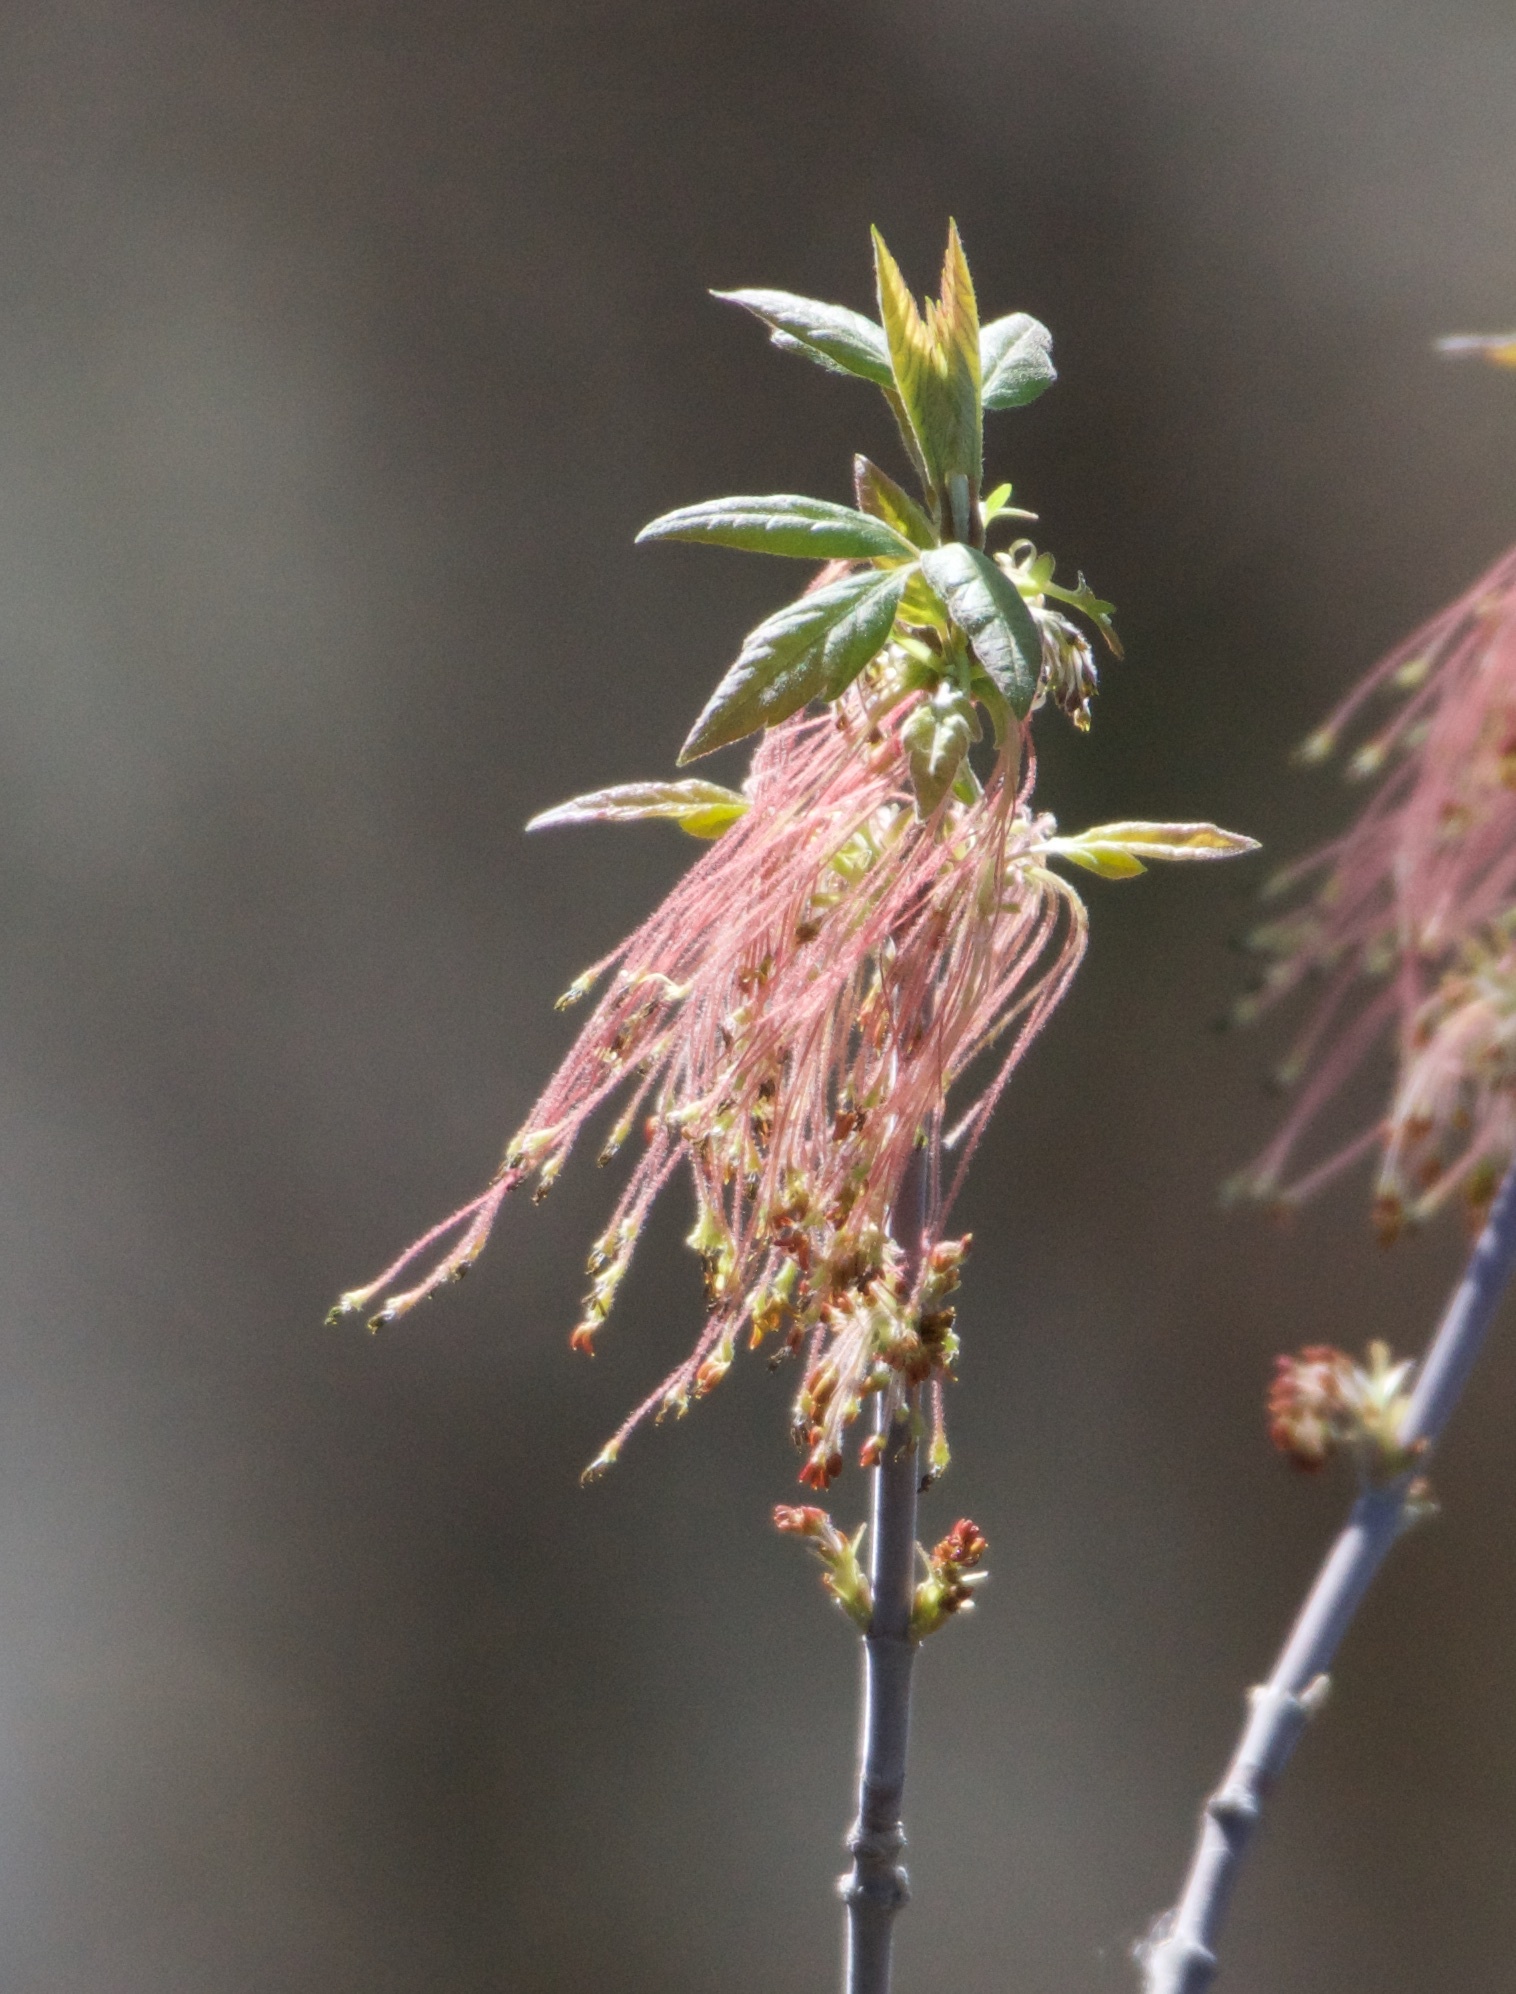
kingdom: Plantae
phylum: Tracheophyta
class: Magnoliopsida
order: Sapindales
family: Sapindaceae
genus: Acer
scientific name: Acer negundo
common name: Ashleaf maple
